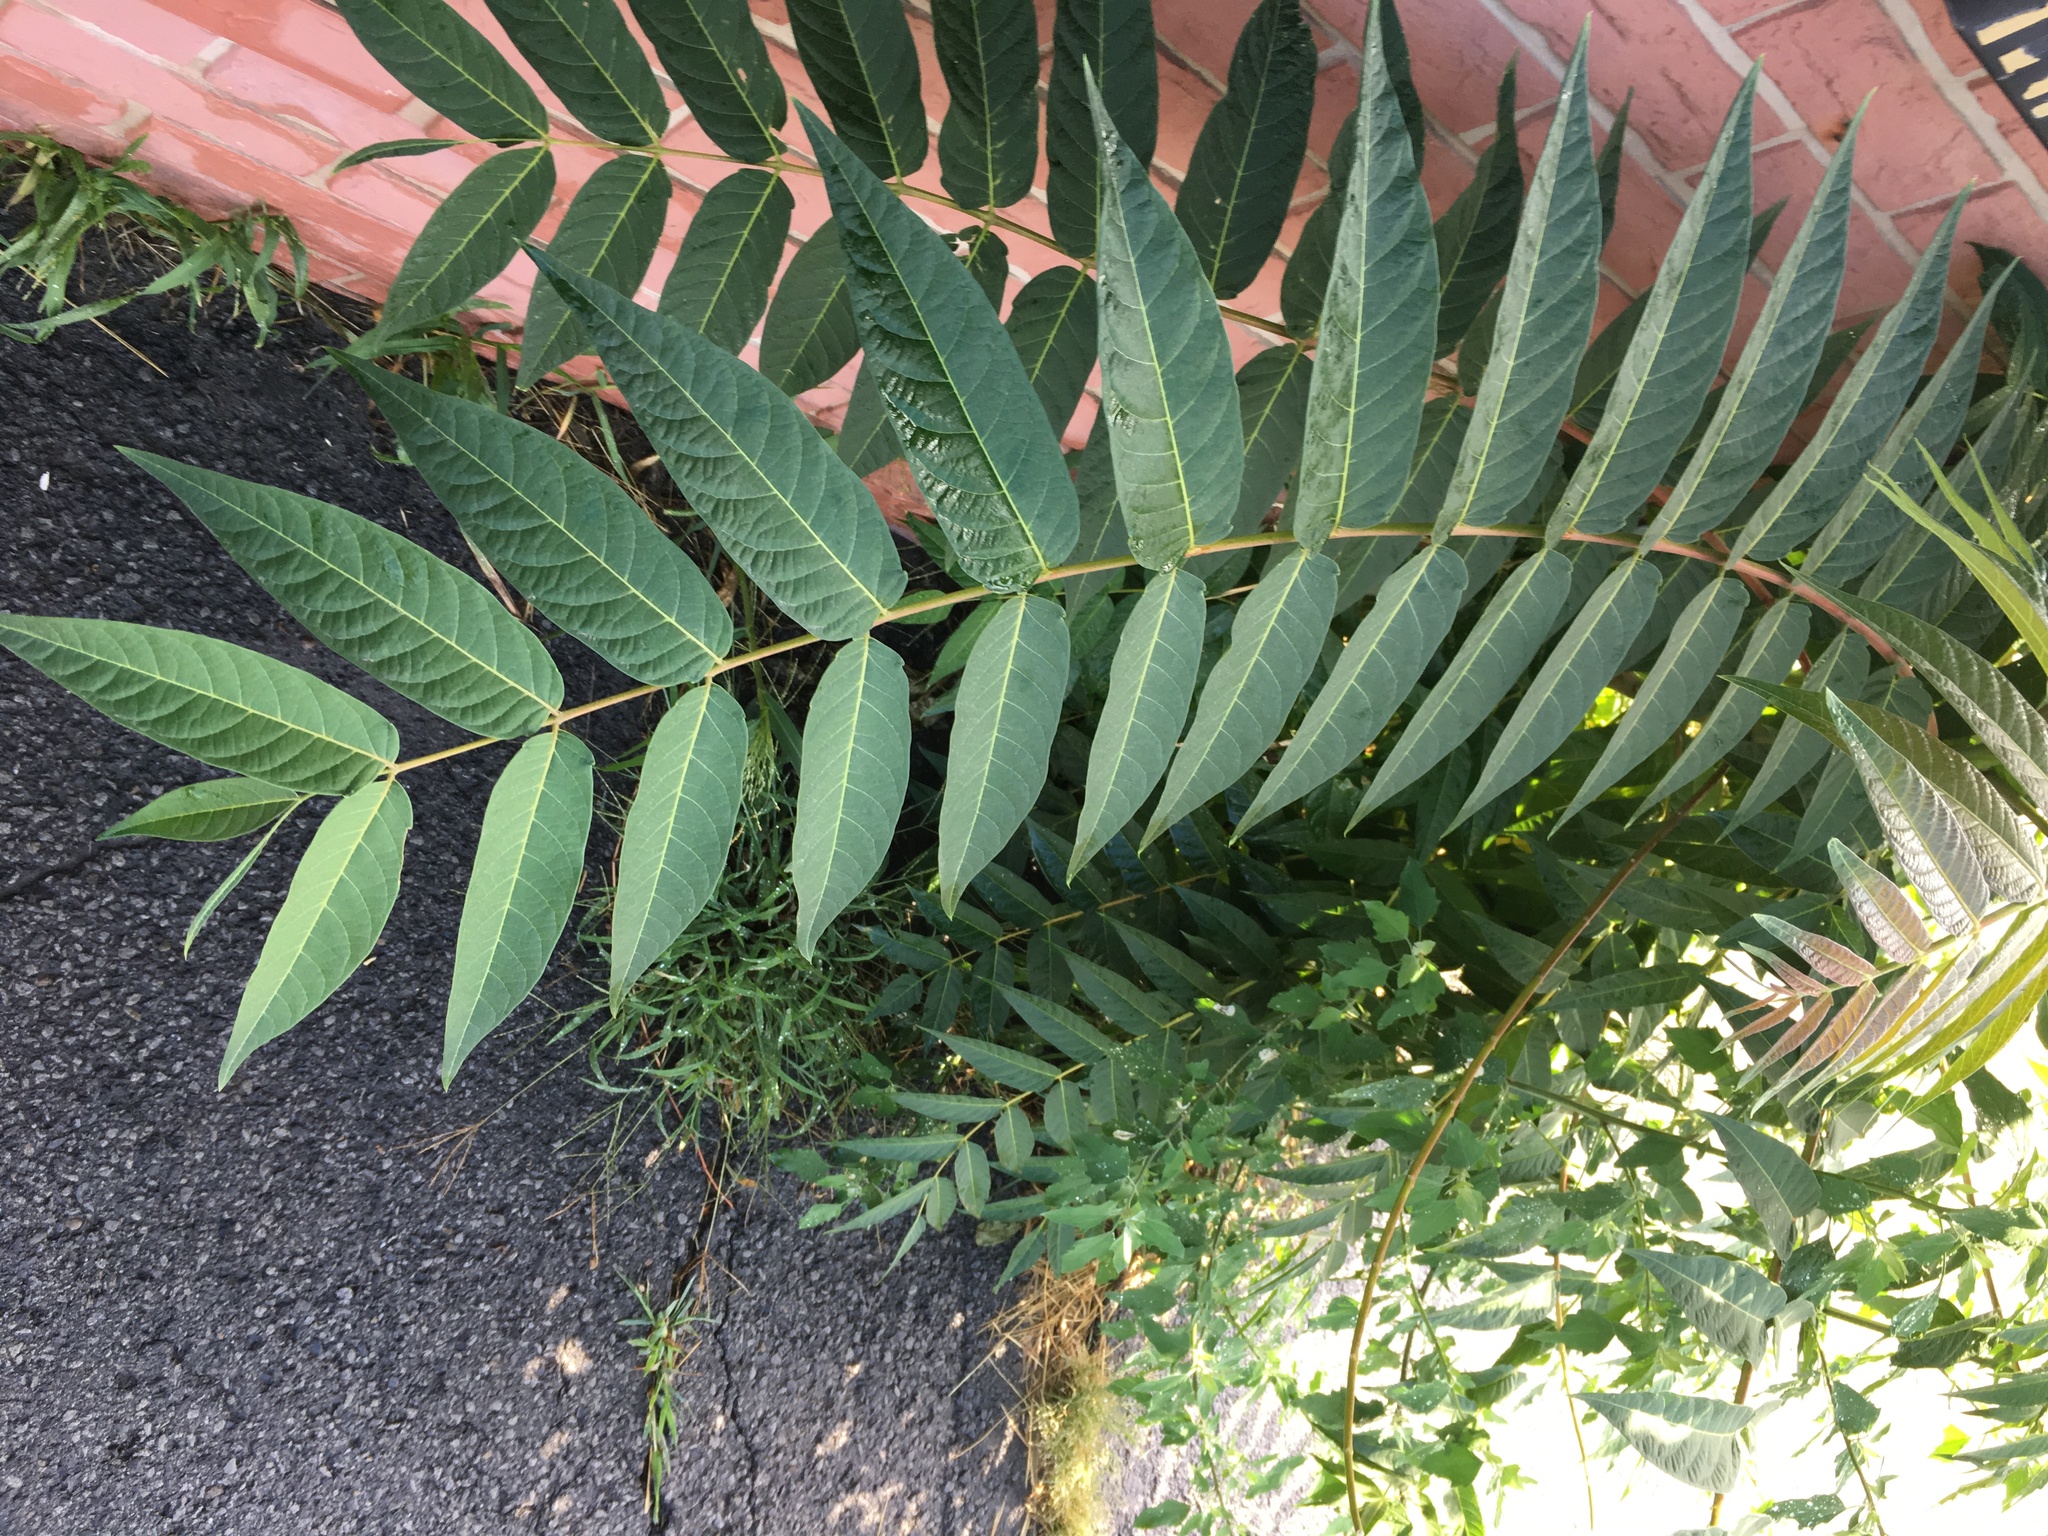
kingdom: Plantae
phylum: Tracheophyta
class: Magnoliopsida
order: Sapindales
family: Simaroubaceae
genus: Ailanthus
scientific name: Ailanthus altissima
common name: Tree-of-heaven
